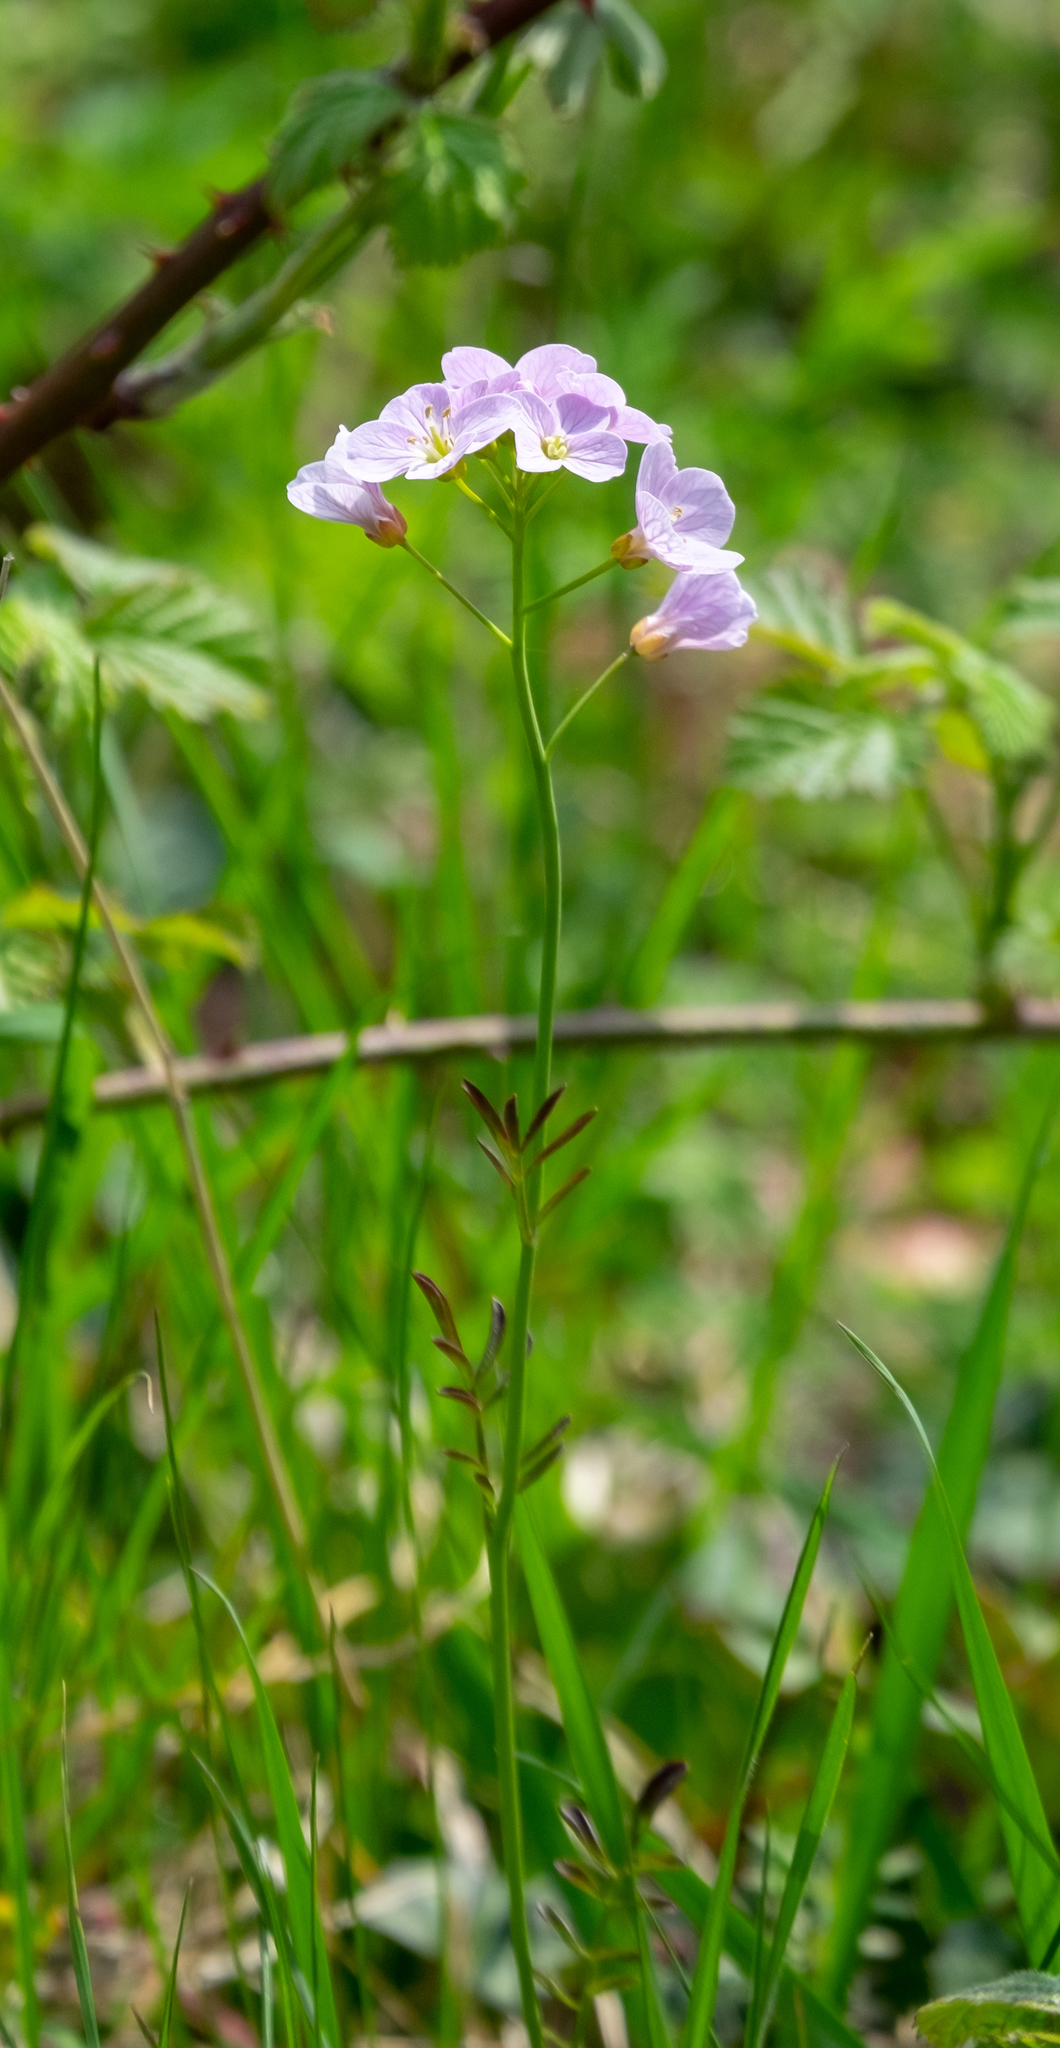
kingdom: Plantae
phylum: Tracheophyta
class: Magnoliopsida
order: Brassicales
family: Brassicaceae
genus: Cardamine
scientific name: Cardamine pratensis
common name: Cuckoo flower
